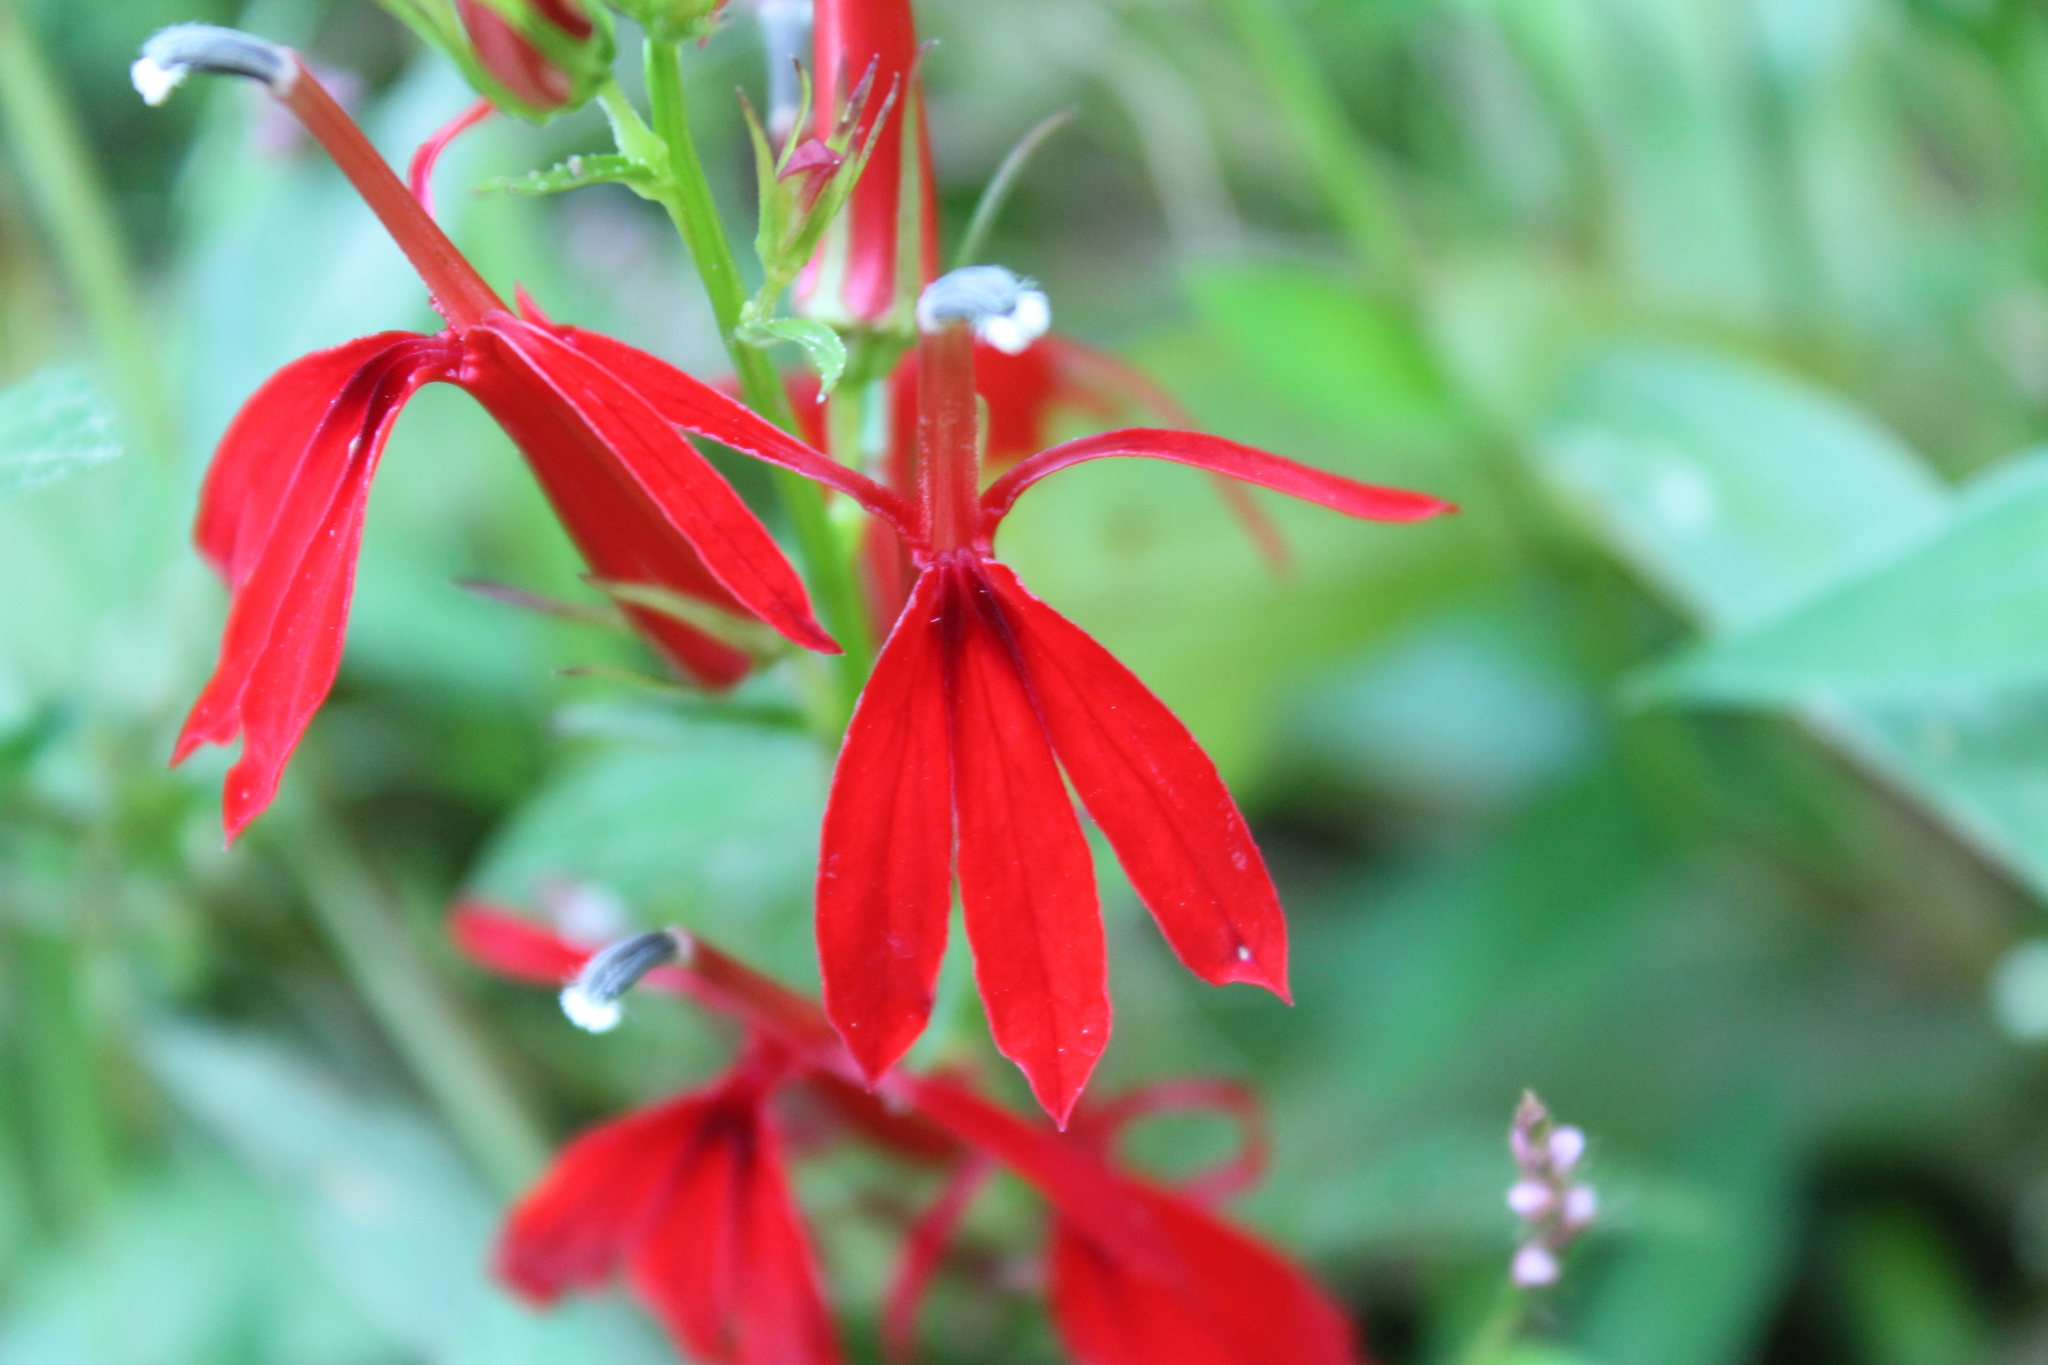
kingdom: Plantae
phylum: Tracheophyta
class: Magnoliopsida
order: Asterales
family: Campanulaceae
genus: Lobelia
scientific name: Lobelia cardinalis
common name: Cardinal flower
